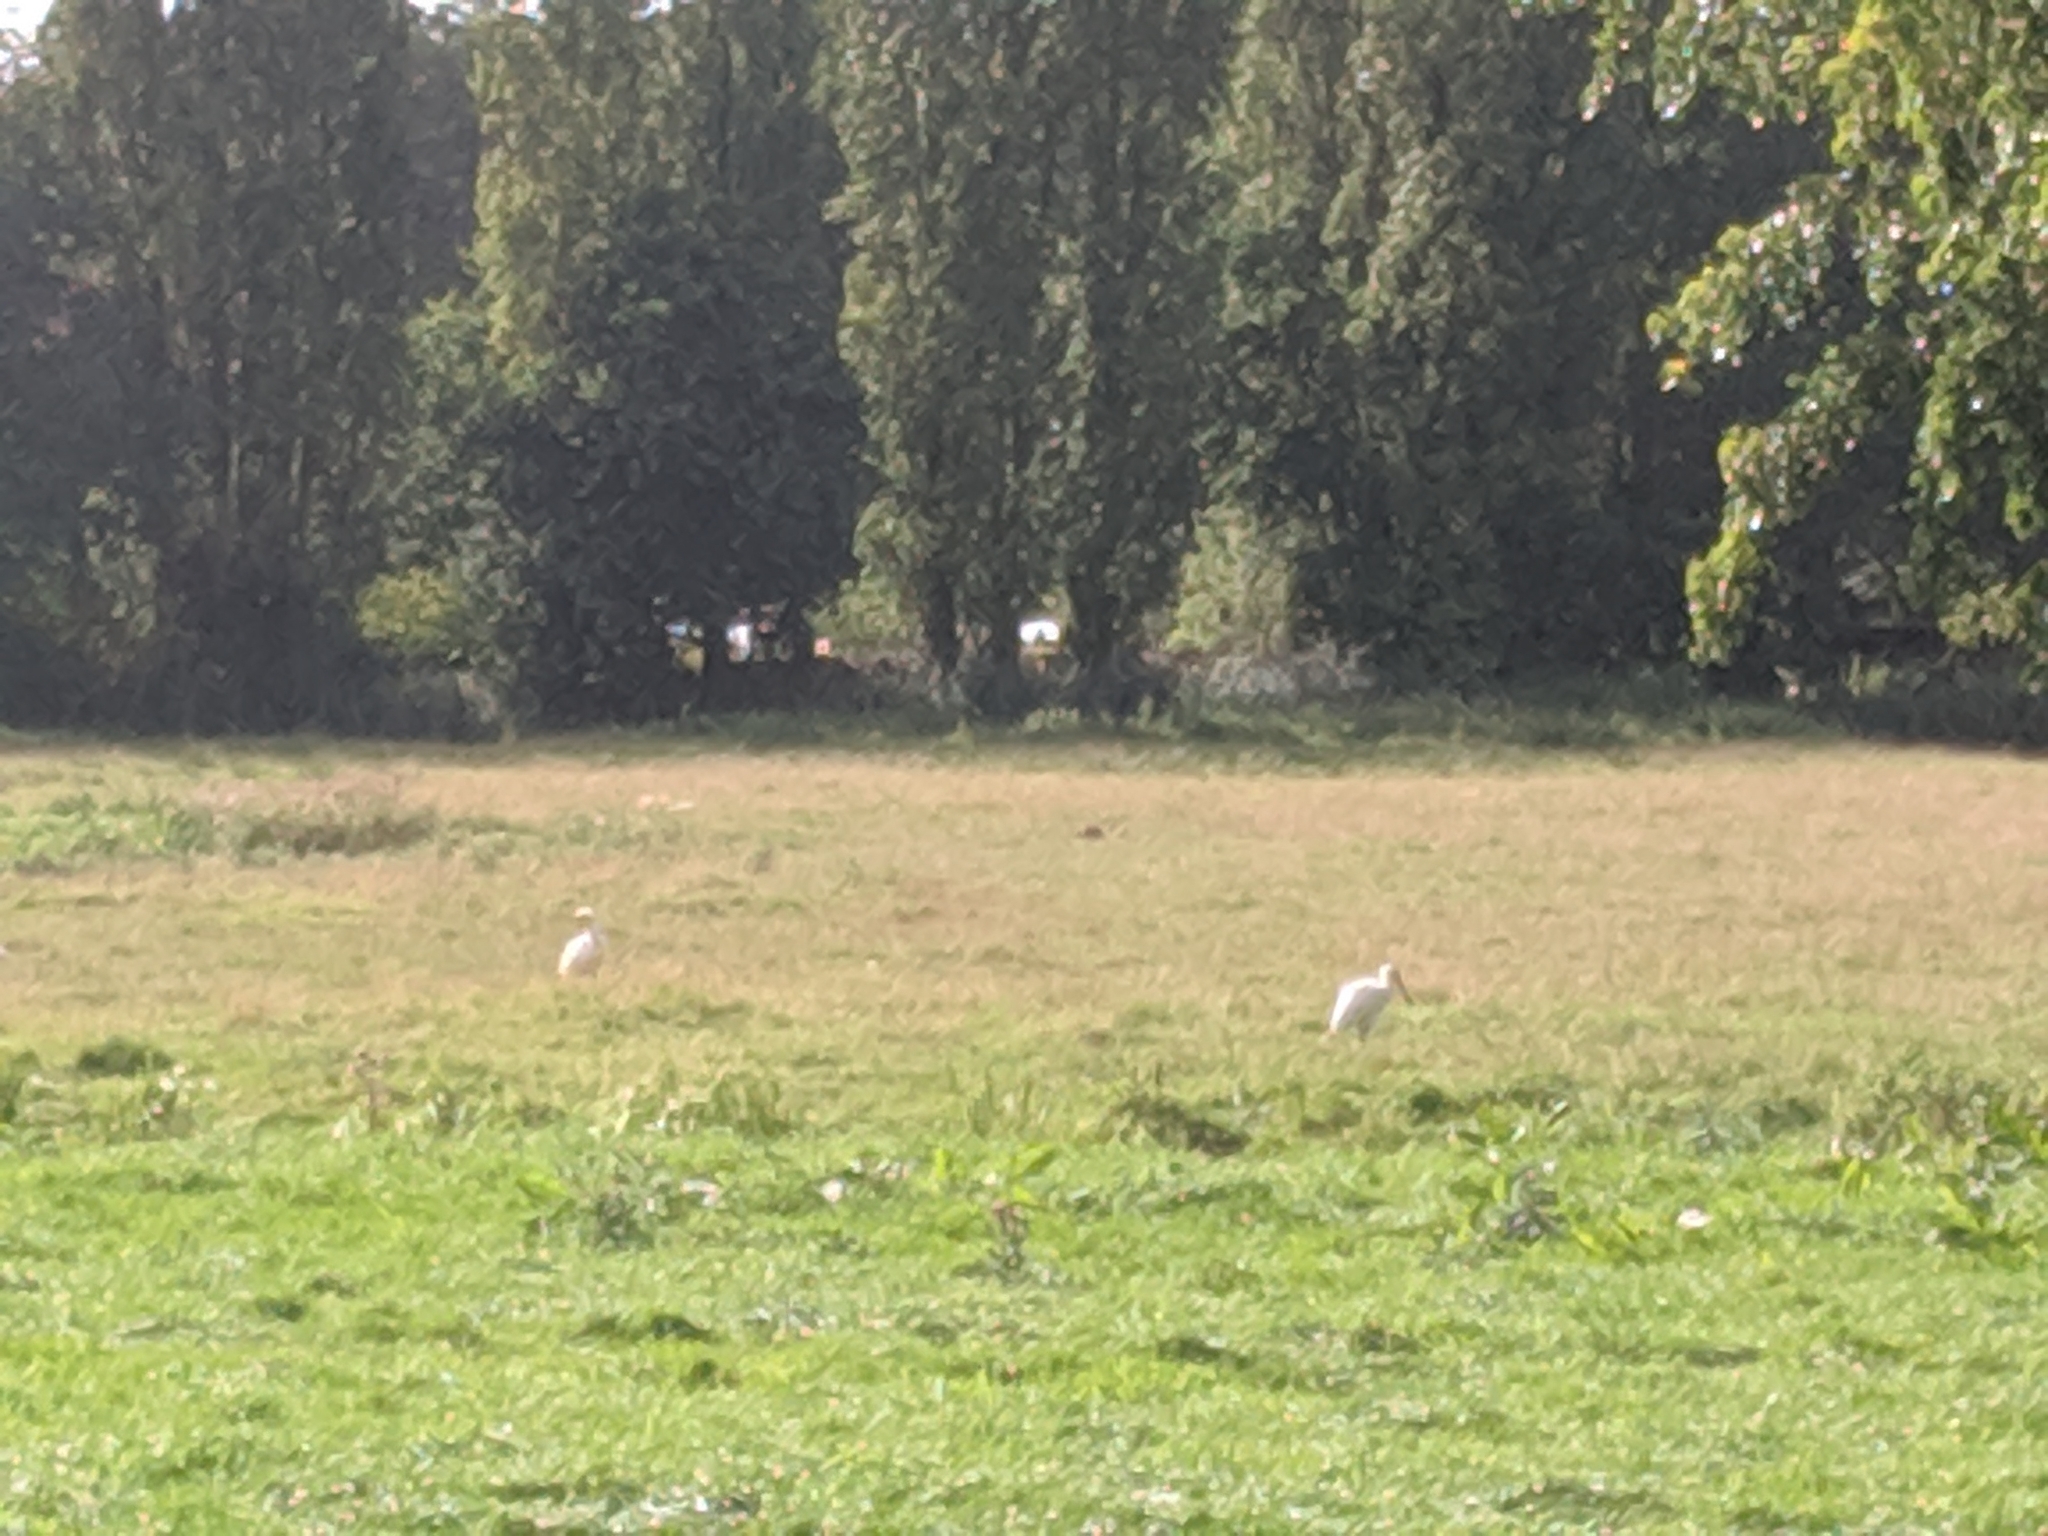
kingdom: Animalia
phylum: Chordata
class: Aves
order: Pelecaniformes
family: Threskiornithidae
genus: Platalea
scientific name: Platalea leucorodia
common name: Eurasian spoonbill
